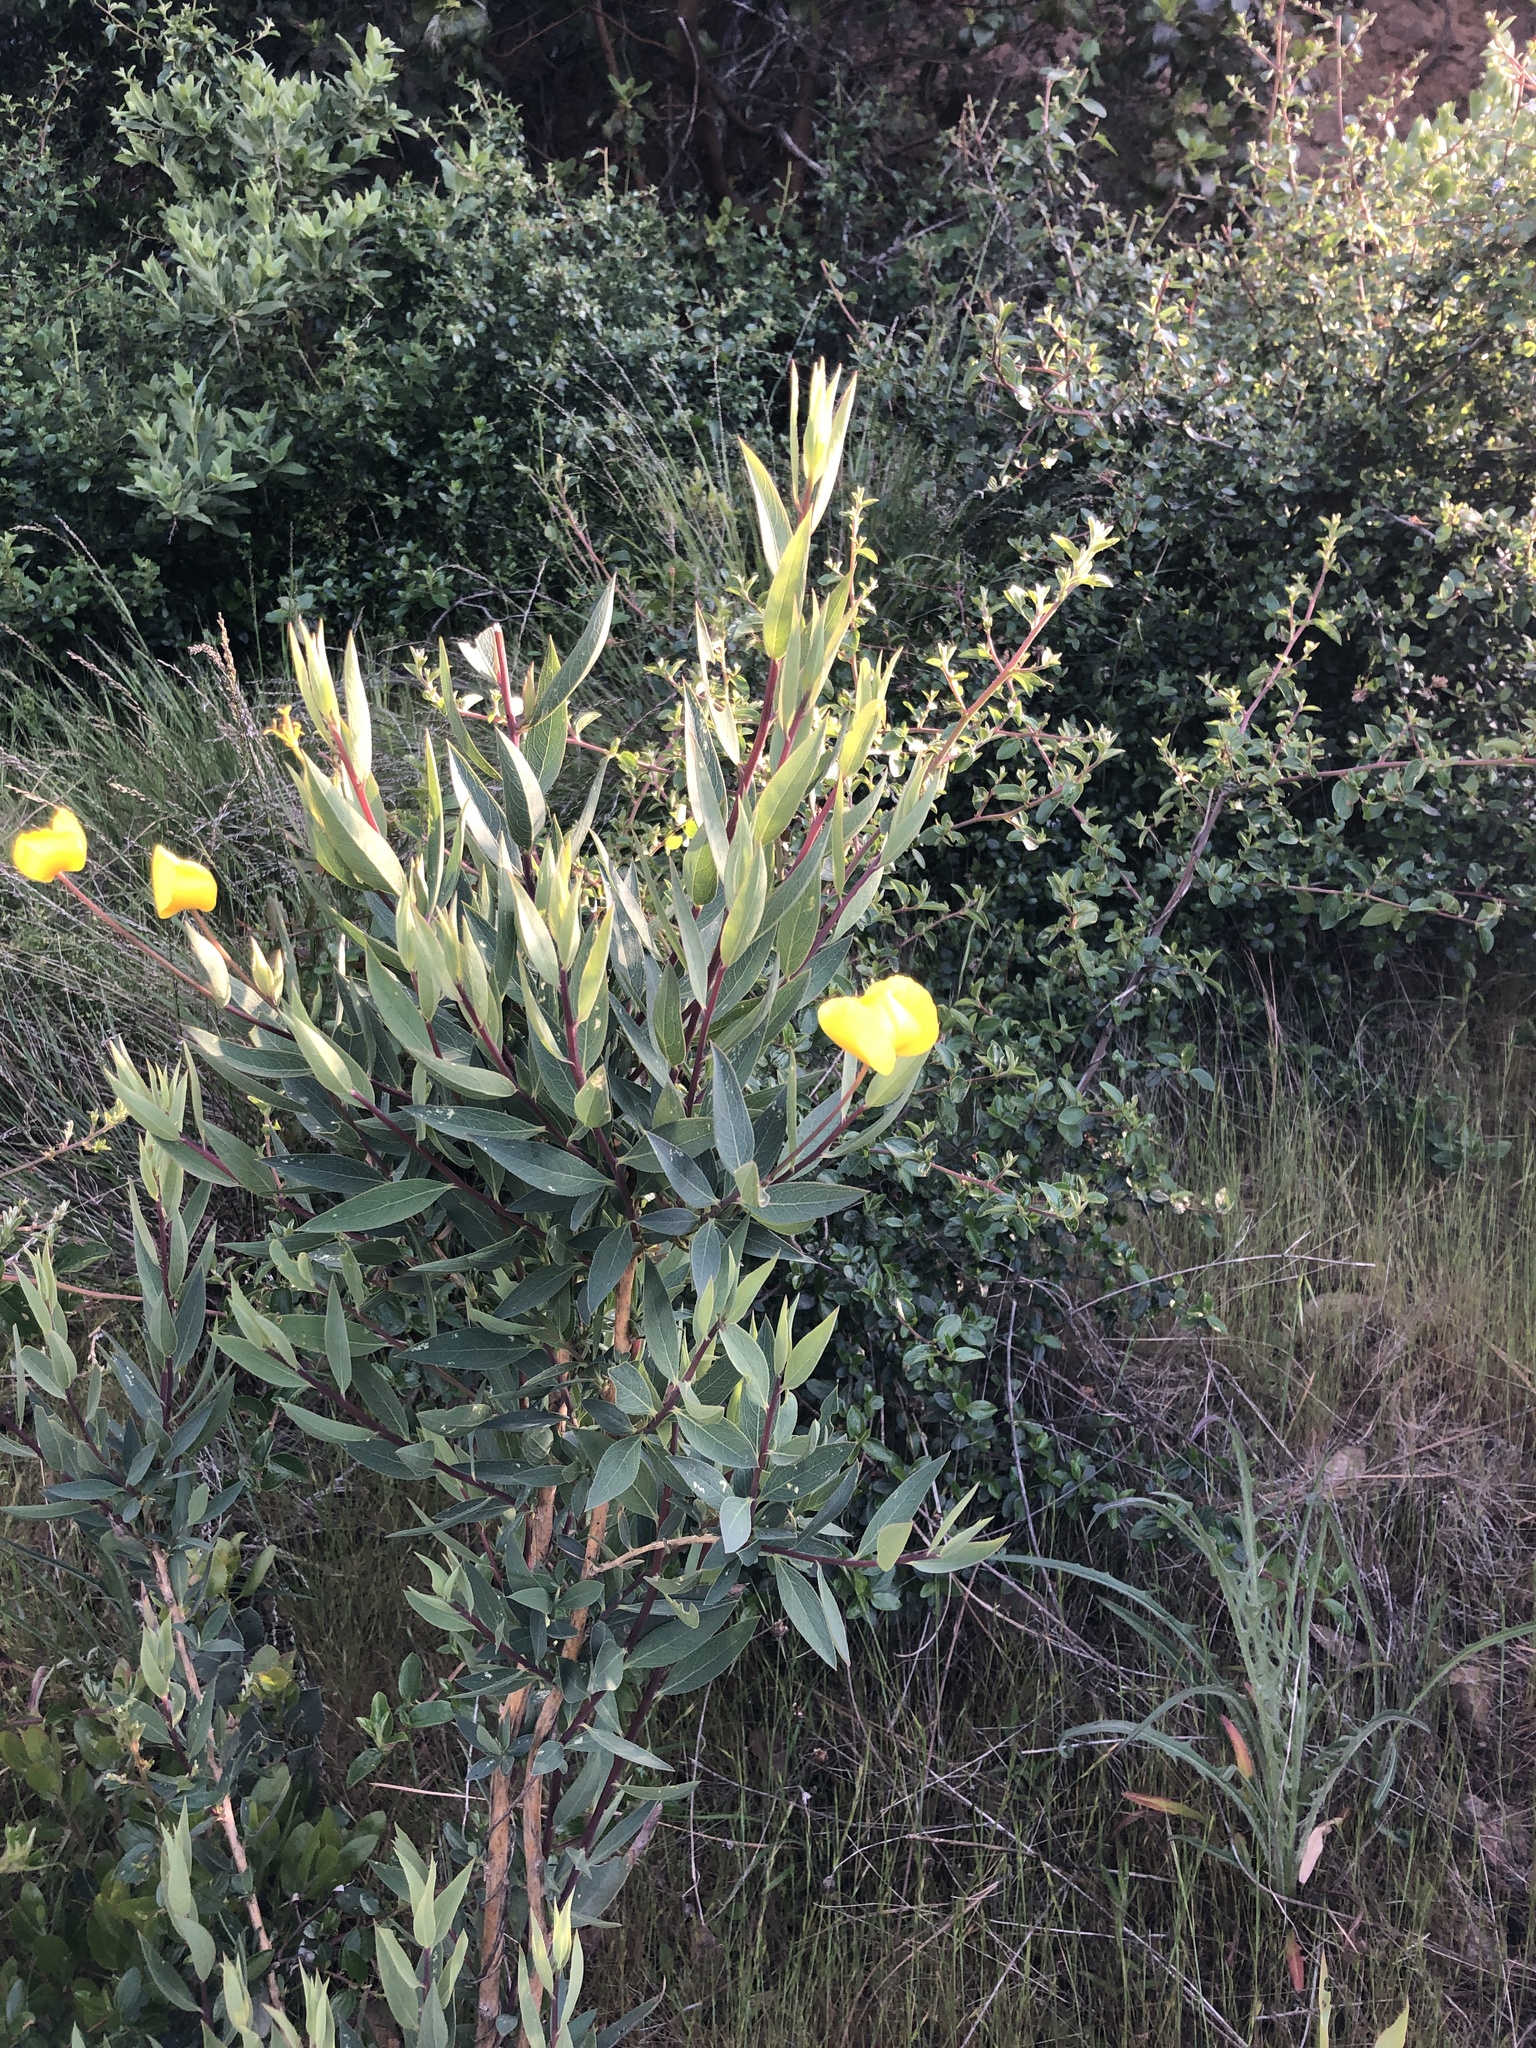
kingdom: Plantae
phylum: Tracheophyta
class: Magnoliopsida
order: Ranunculales
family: Papaveraceae
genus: Dendromecon
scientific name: Dendromecon rigida
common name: Tree poppy
